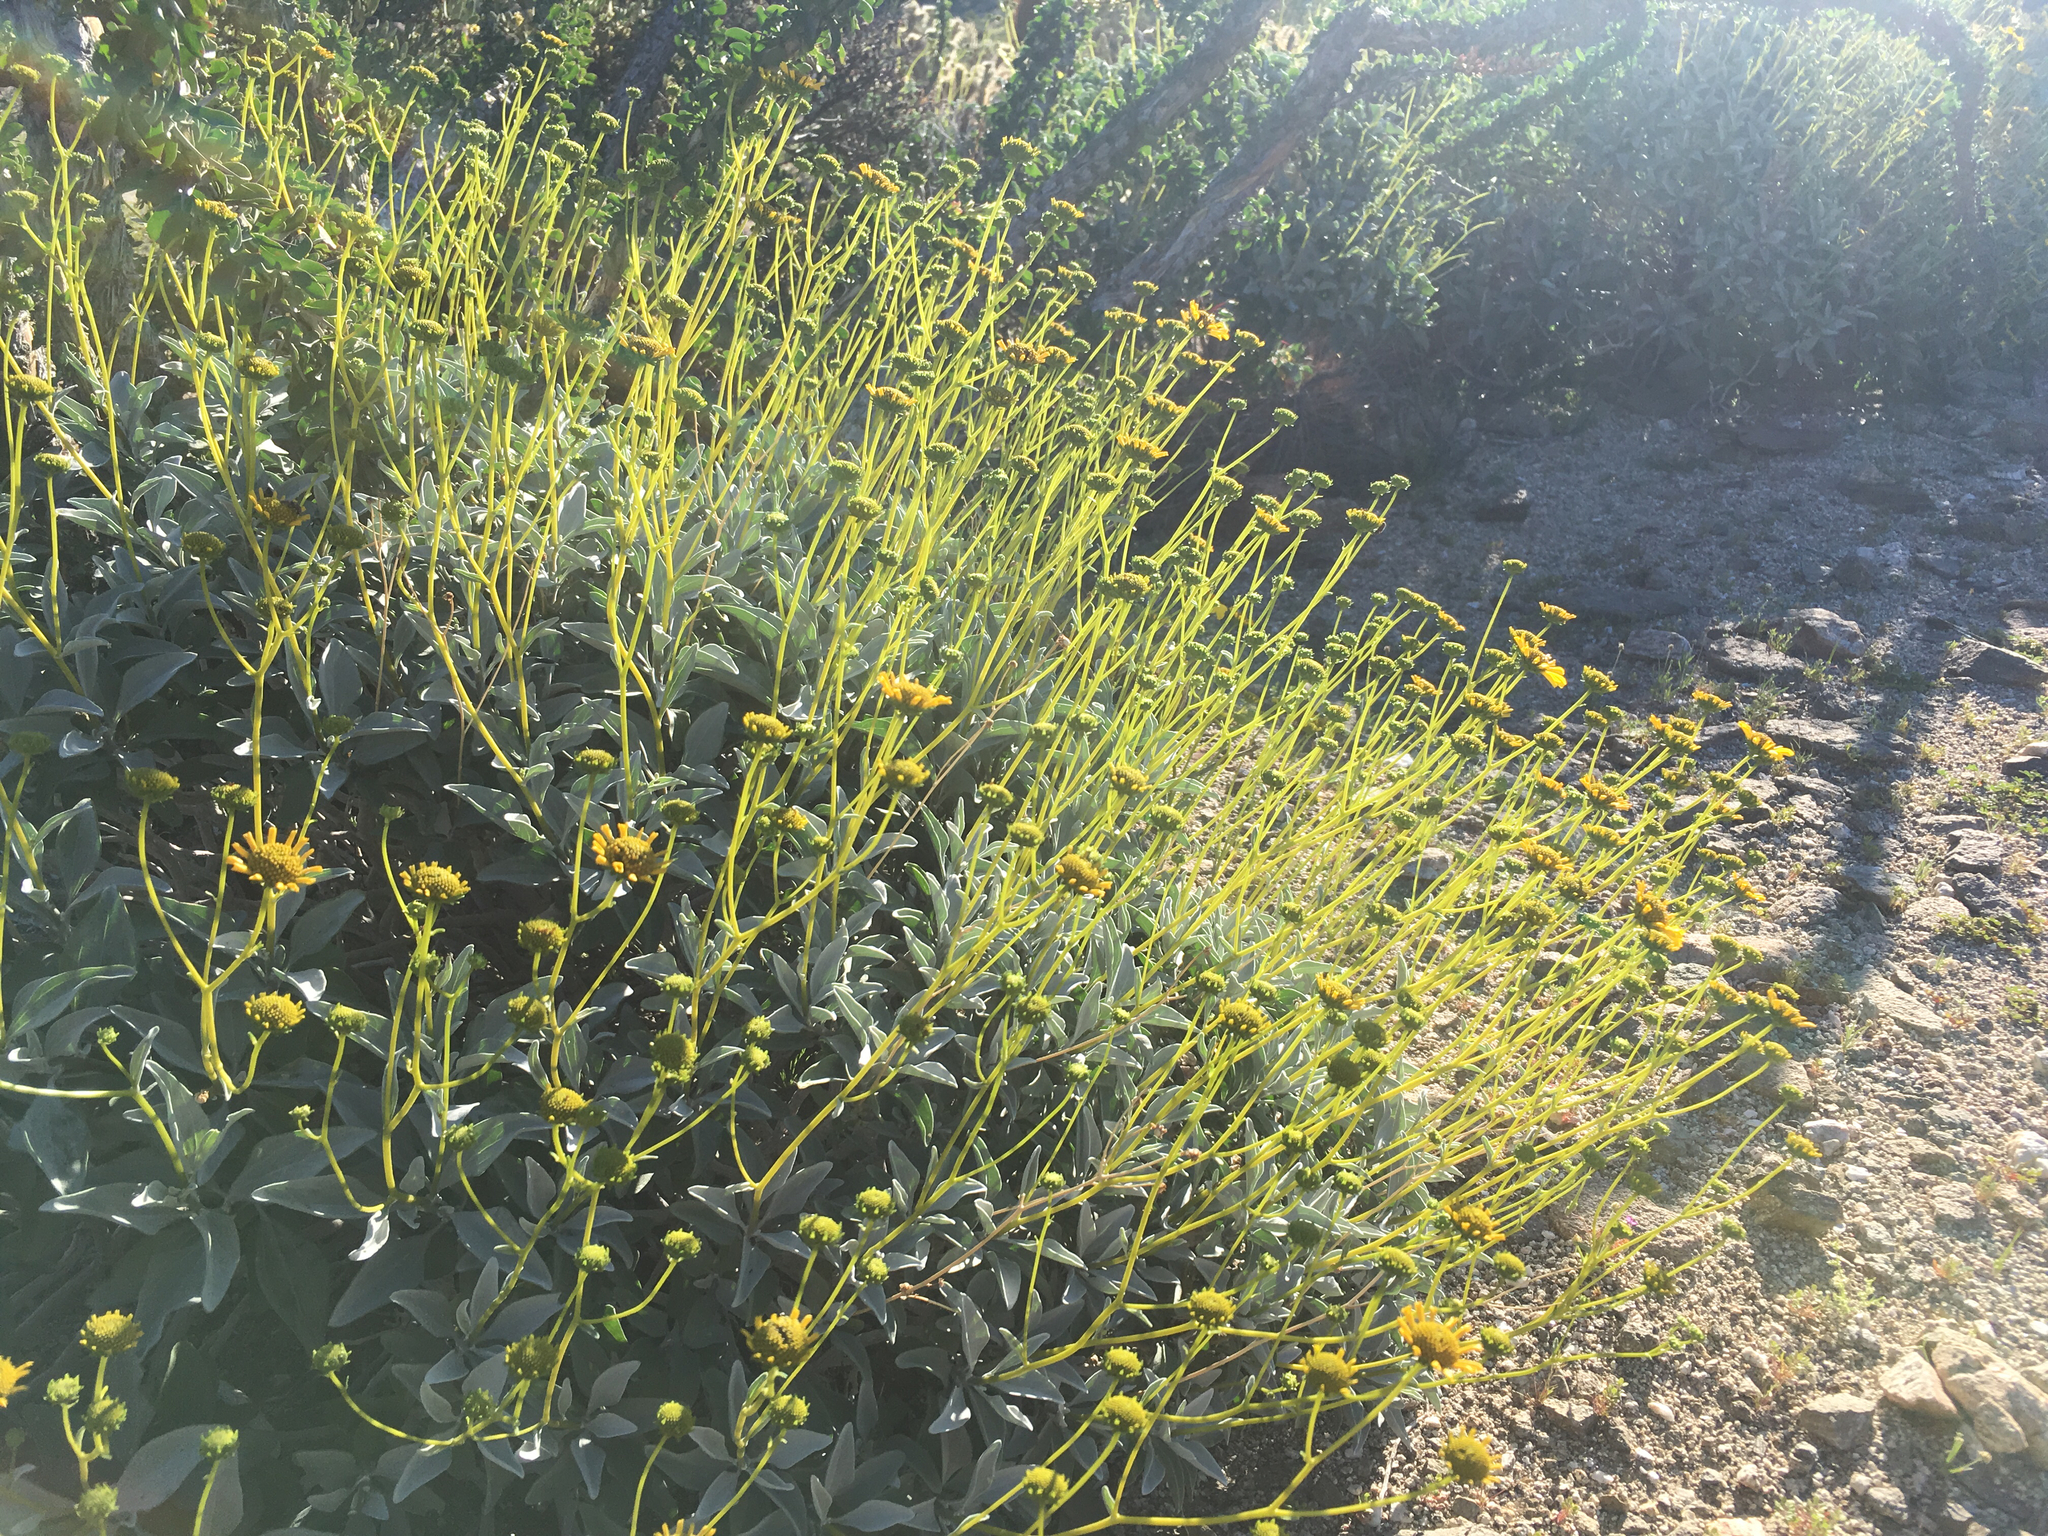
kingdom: Plantae
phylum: Tracheophyta
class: Magnoliopsida
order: Asterales
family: Asteraceae
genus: Encelia
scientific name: Encelia farinosa
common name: Brittlebush
